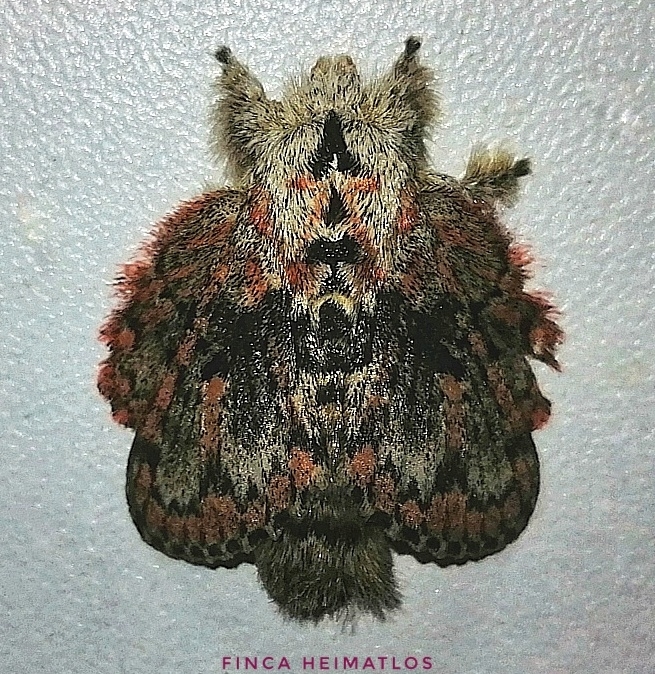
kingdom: Animalia
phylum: Arthropoda
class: Insecta
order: Lepidoptera
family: Lasiocampidae
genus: Euglyphis
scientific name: Euglyphis gibea
